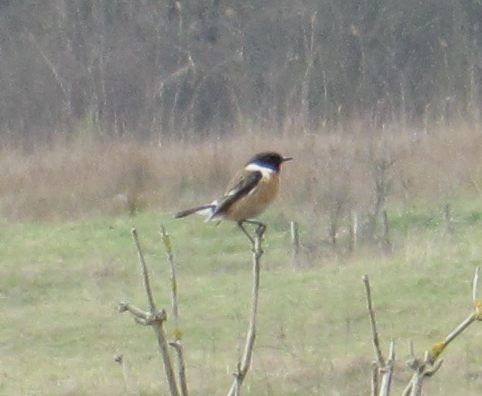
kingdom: Animalia
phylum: Chordata
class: Aves
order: Passeriformes
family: Muscicapidae
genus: Saxicola
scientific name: Saxicola rubicola
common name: European stonechat
